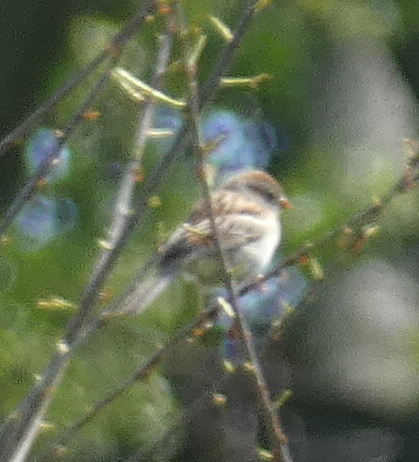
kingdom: Animalia
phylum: Chordata
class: Aves
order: Passeriformes
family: Passerellidae
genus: Spizella
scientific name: Spizella pusilla
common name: Field sparrow
